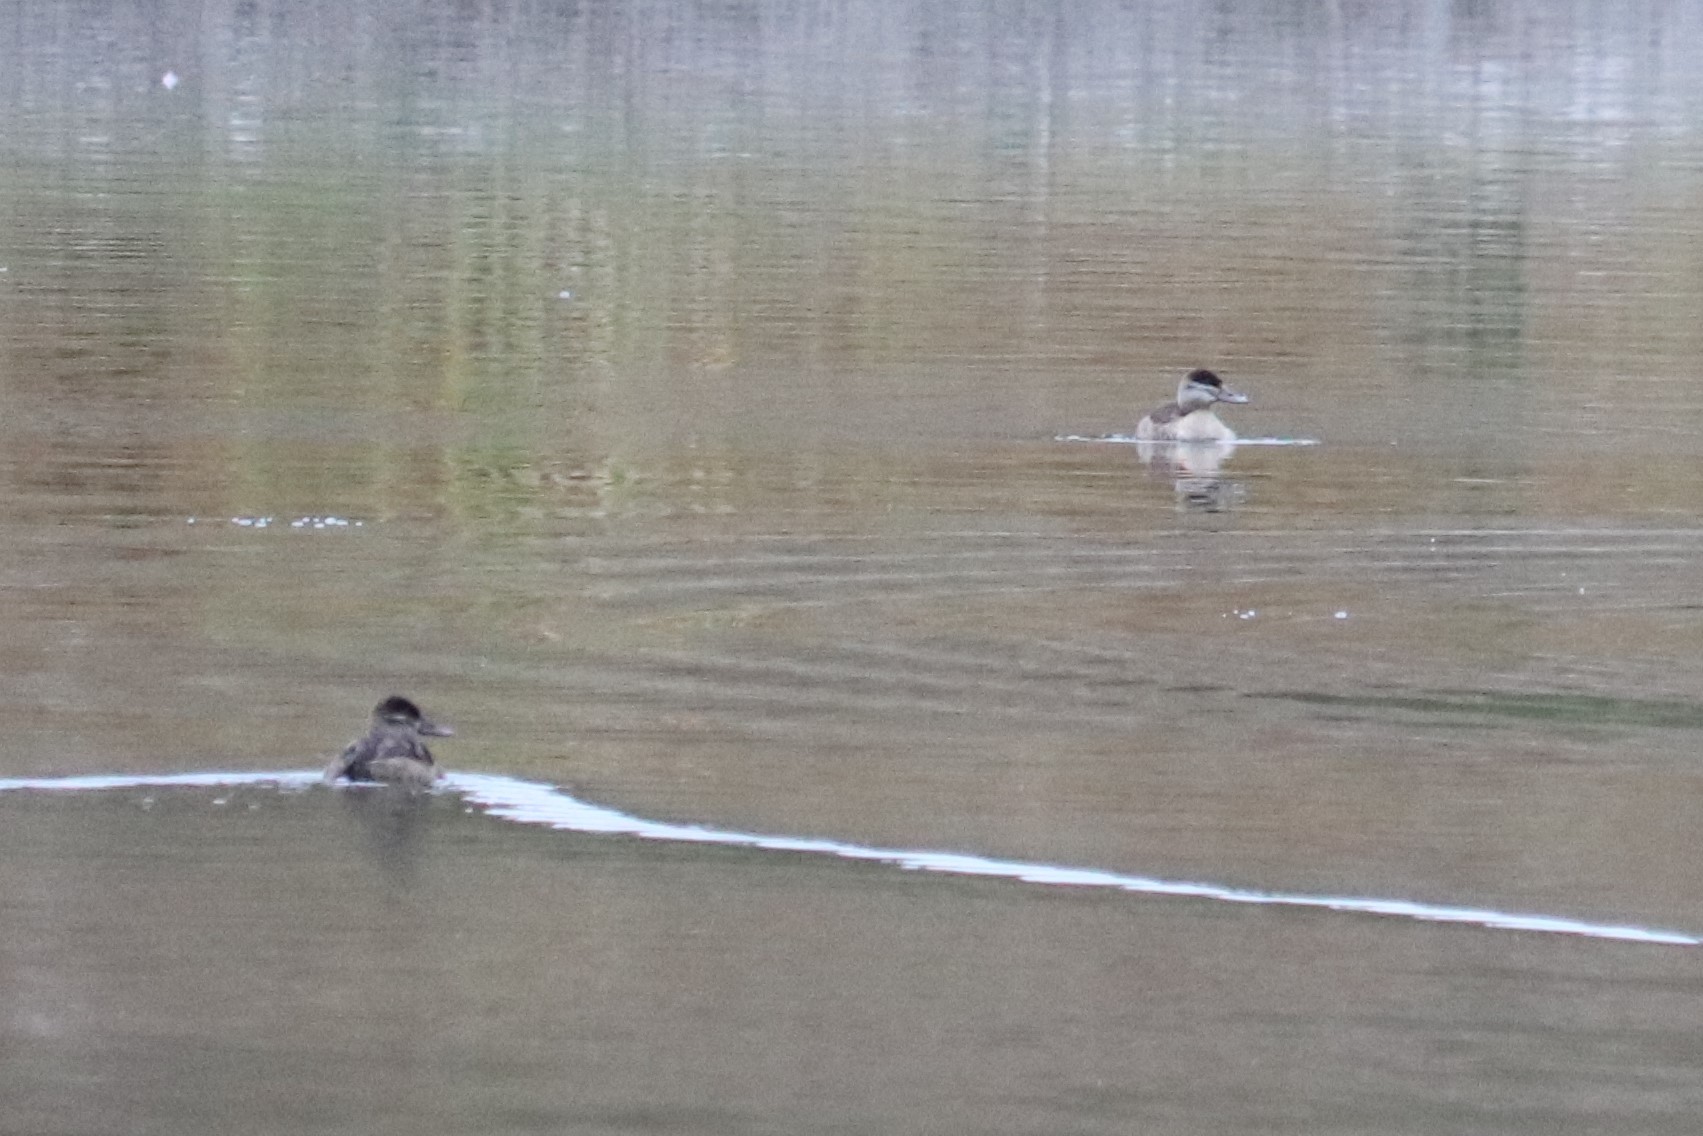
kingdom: Animalia
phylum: Chordata
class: Aves
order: Anseriformes
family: Anatidae
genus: Oxyura
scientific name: Oxyura jamaicensis
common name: Ruddy duck
